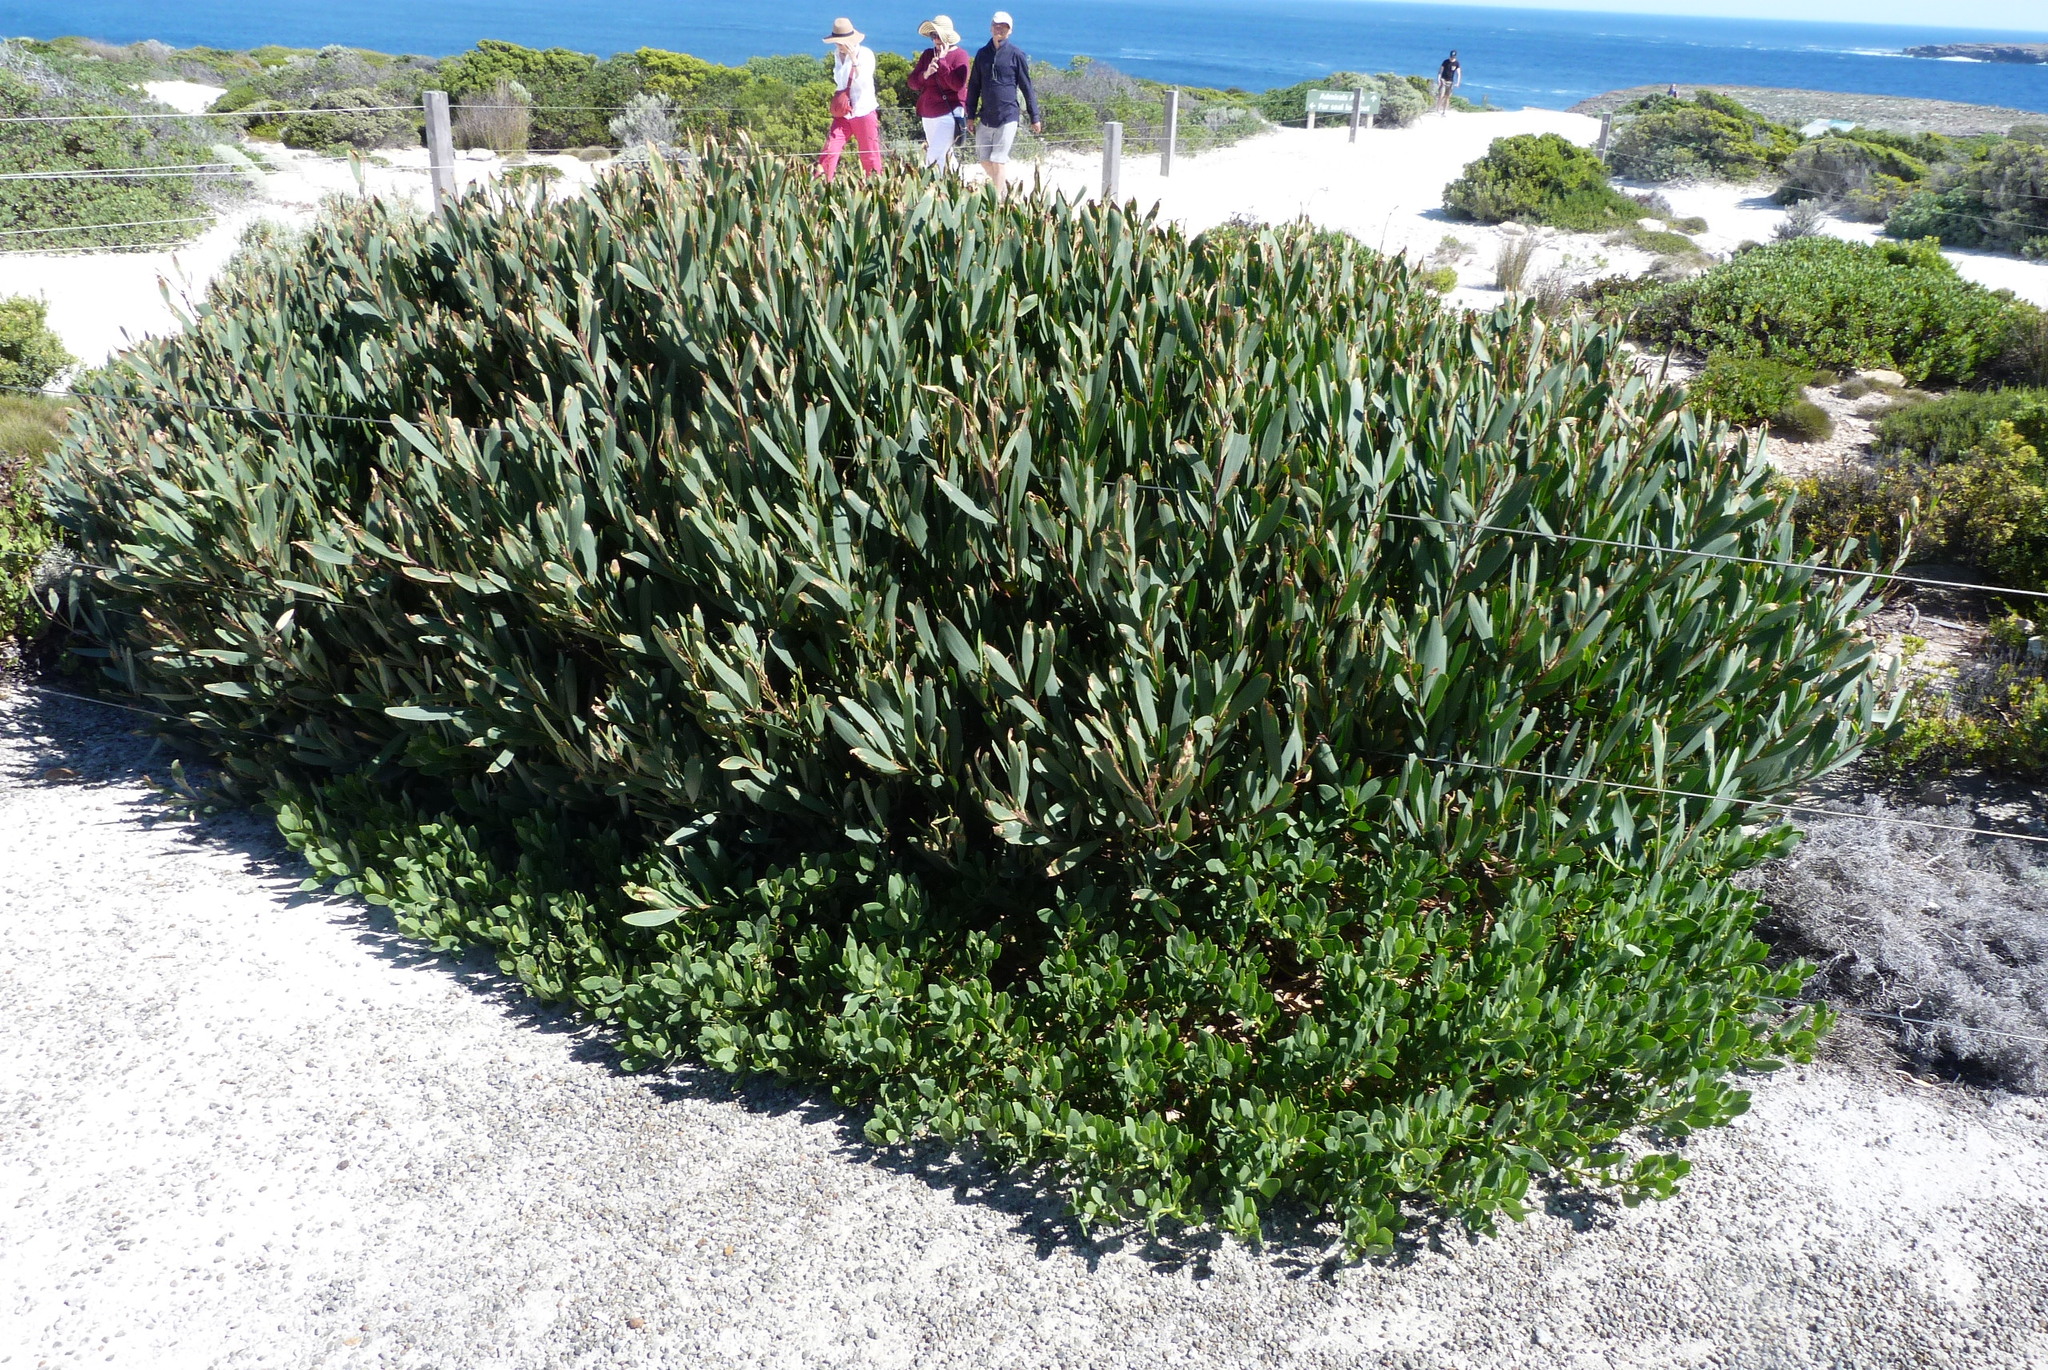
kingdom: Plantae
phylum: Tracheophyta
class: Magnoliopsida
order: Fabales
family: Fabaceae
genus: Acacia
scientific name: Acacia longifolia
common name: Sydney golden wattle
